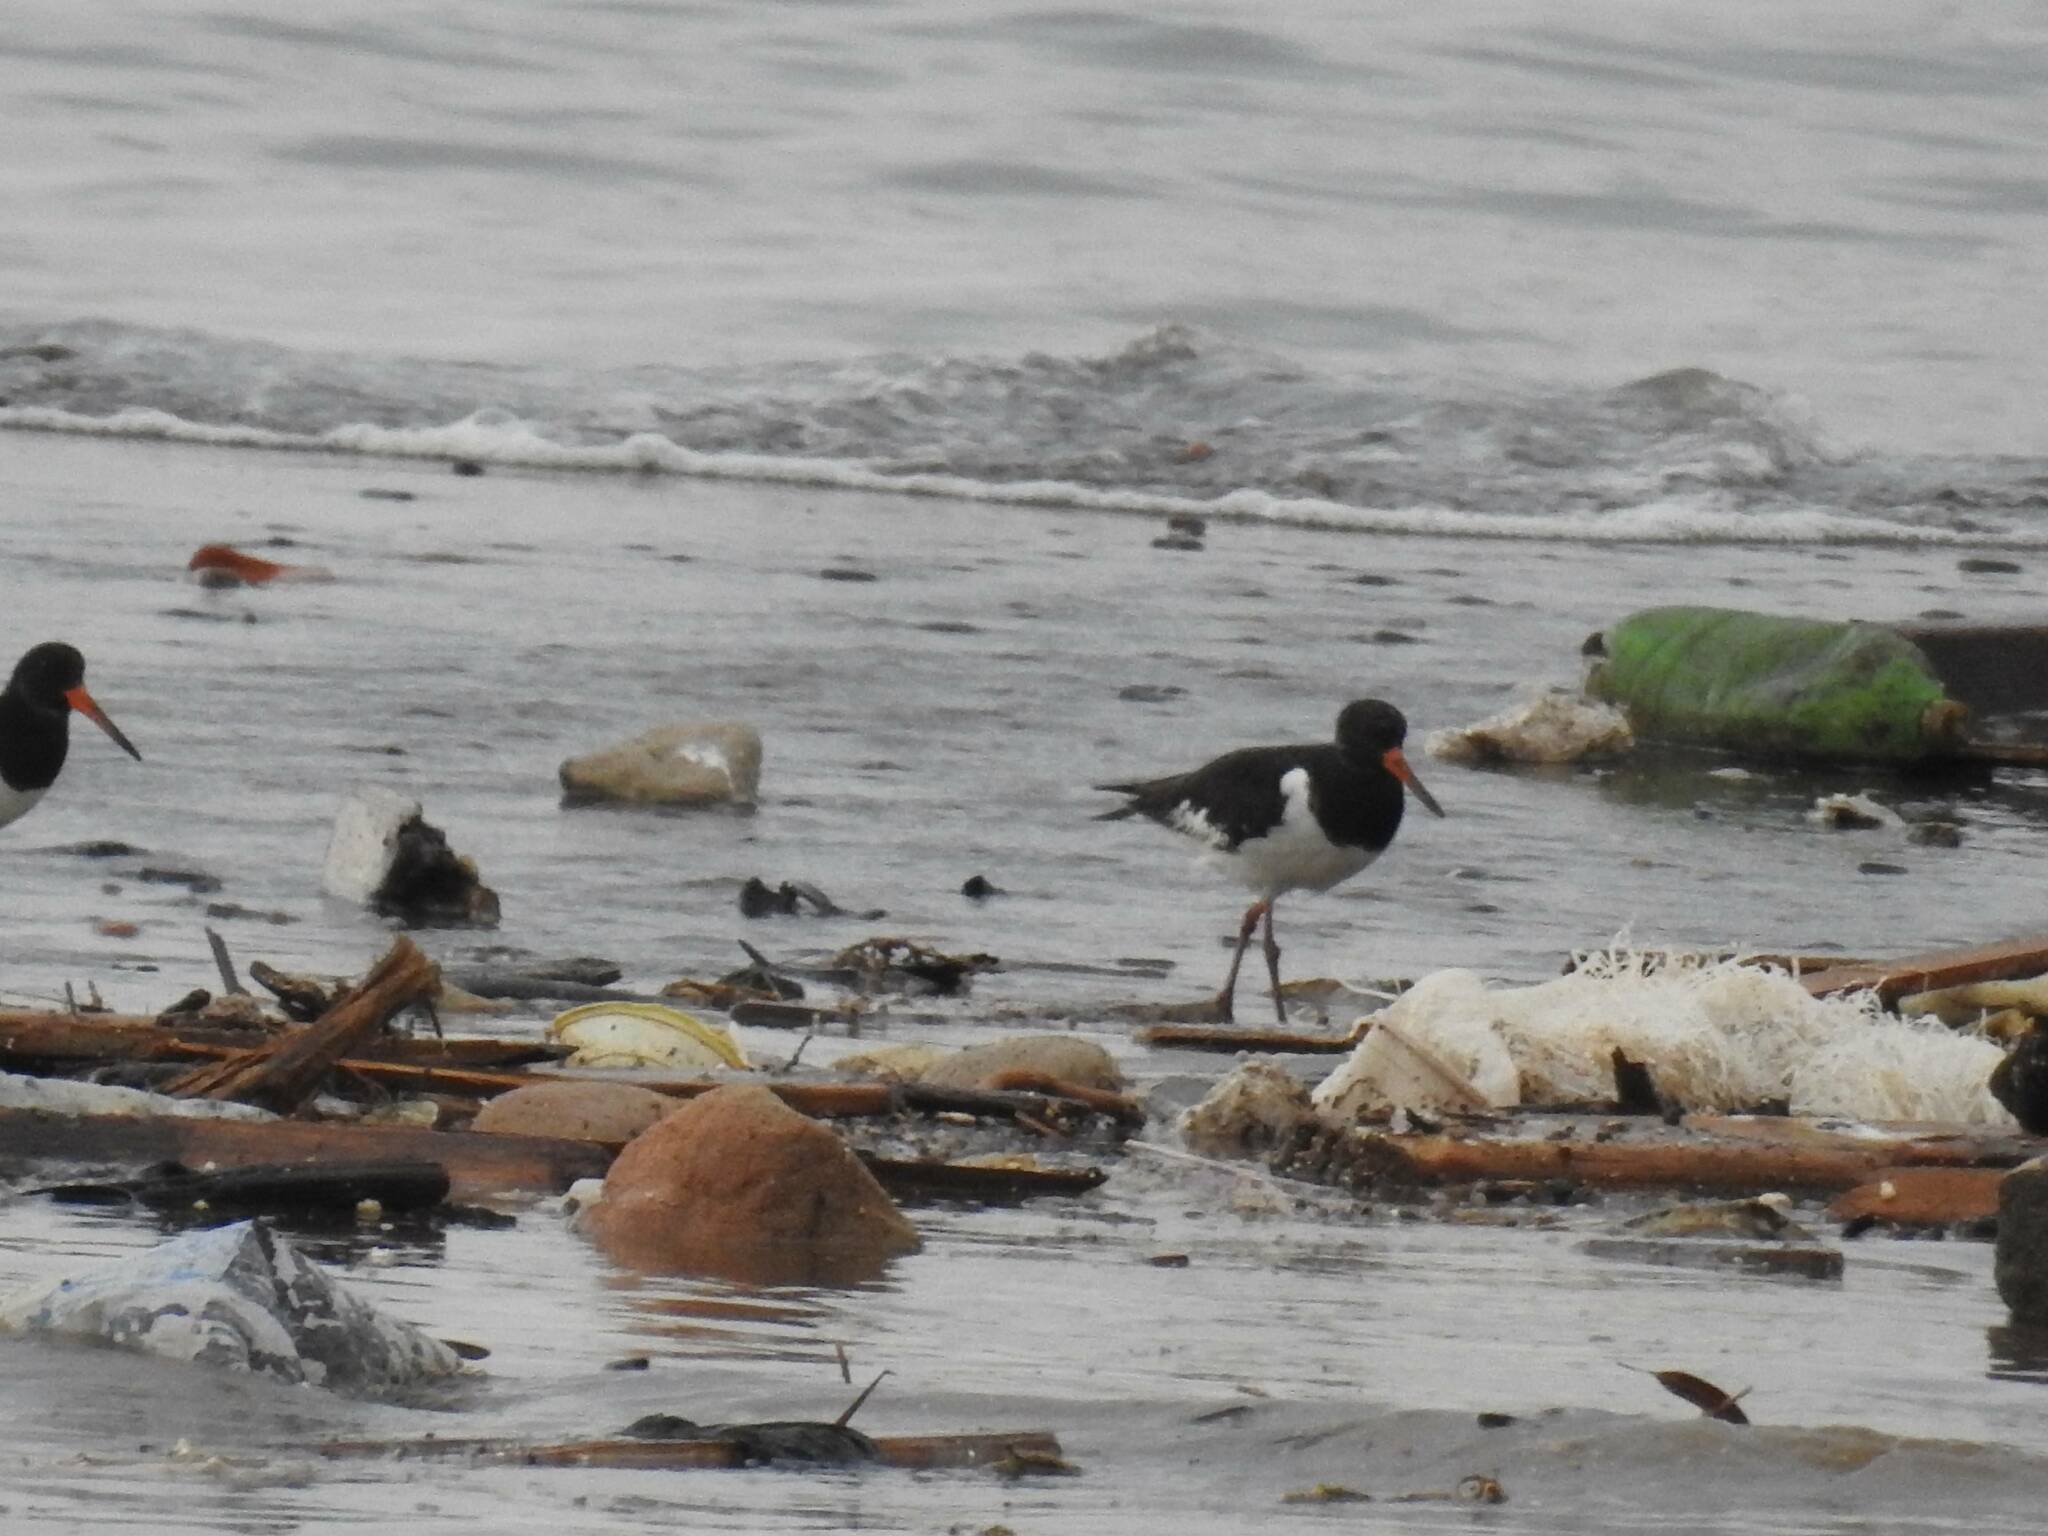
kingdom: Animalia
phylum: Chordata
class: Aves
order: Charadriiformes
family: Haematopodidae
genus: Haematopus
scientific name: Haematopus ostralegus
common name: Eurasian oystercatcher
